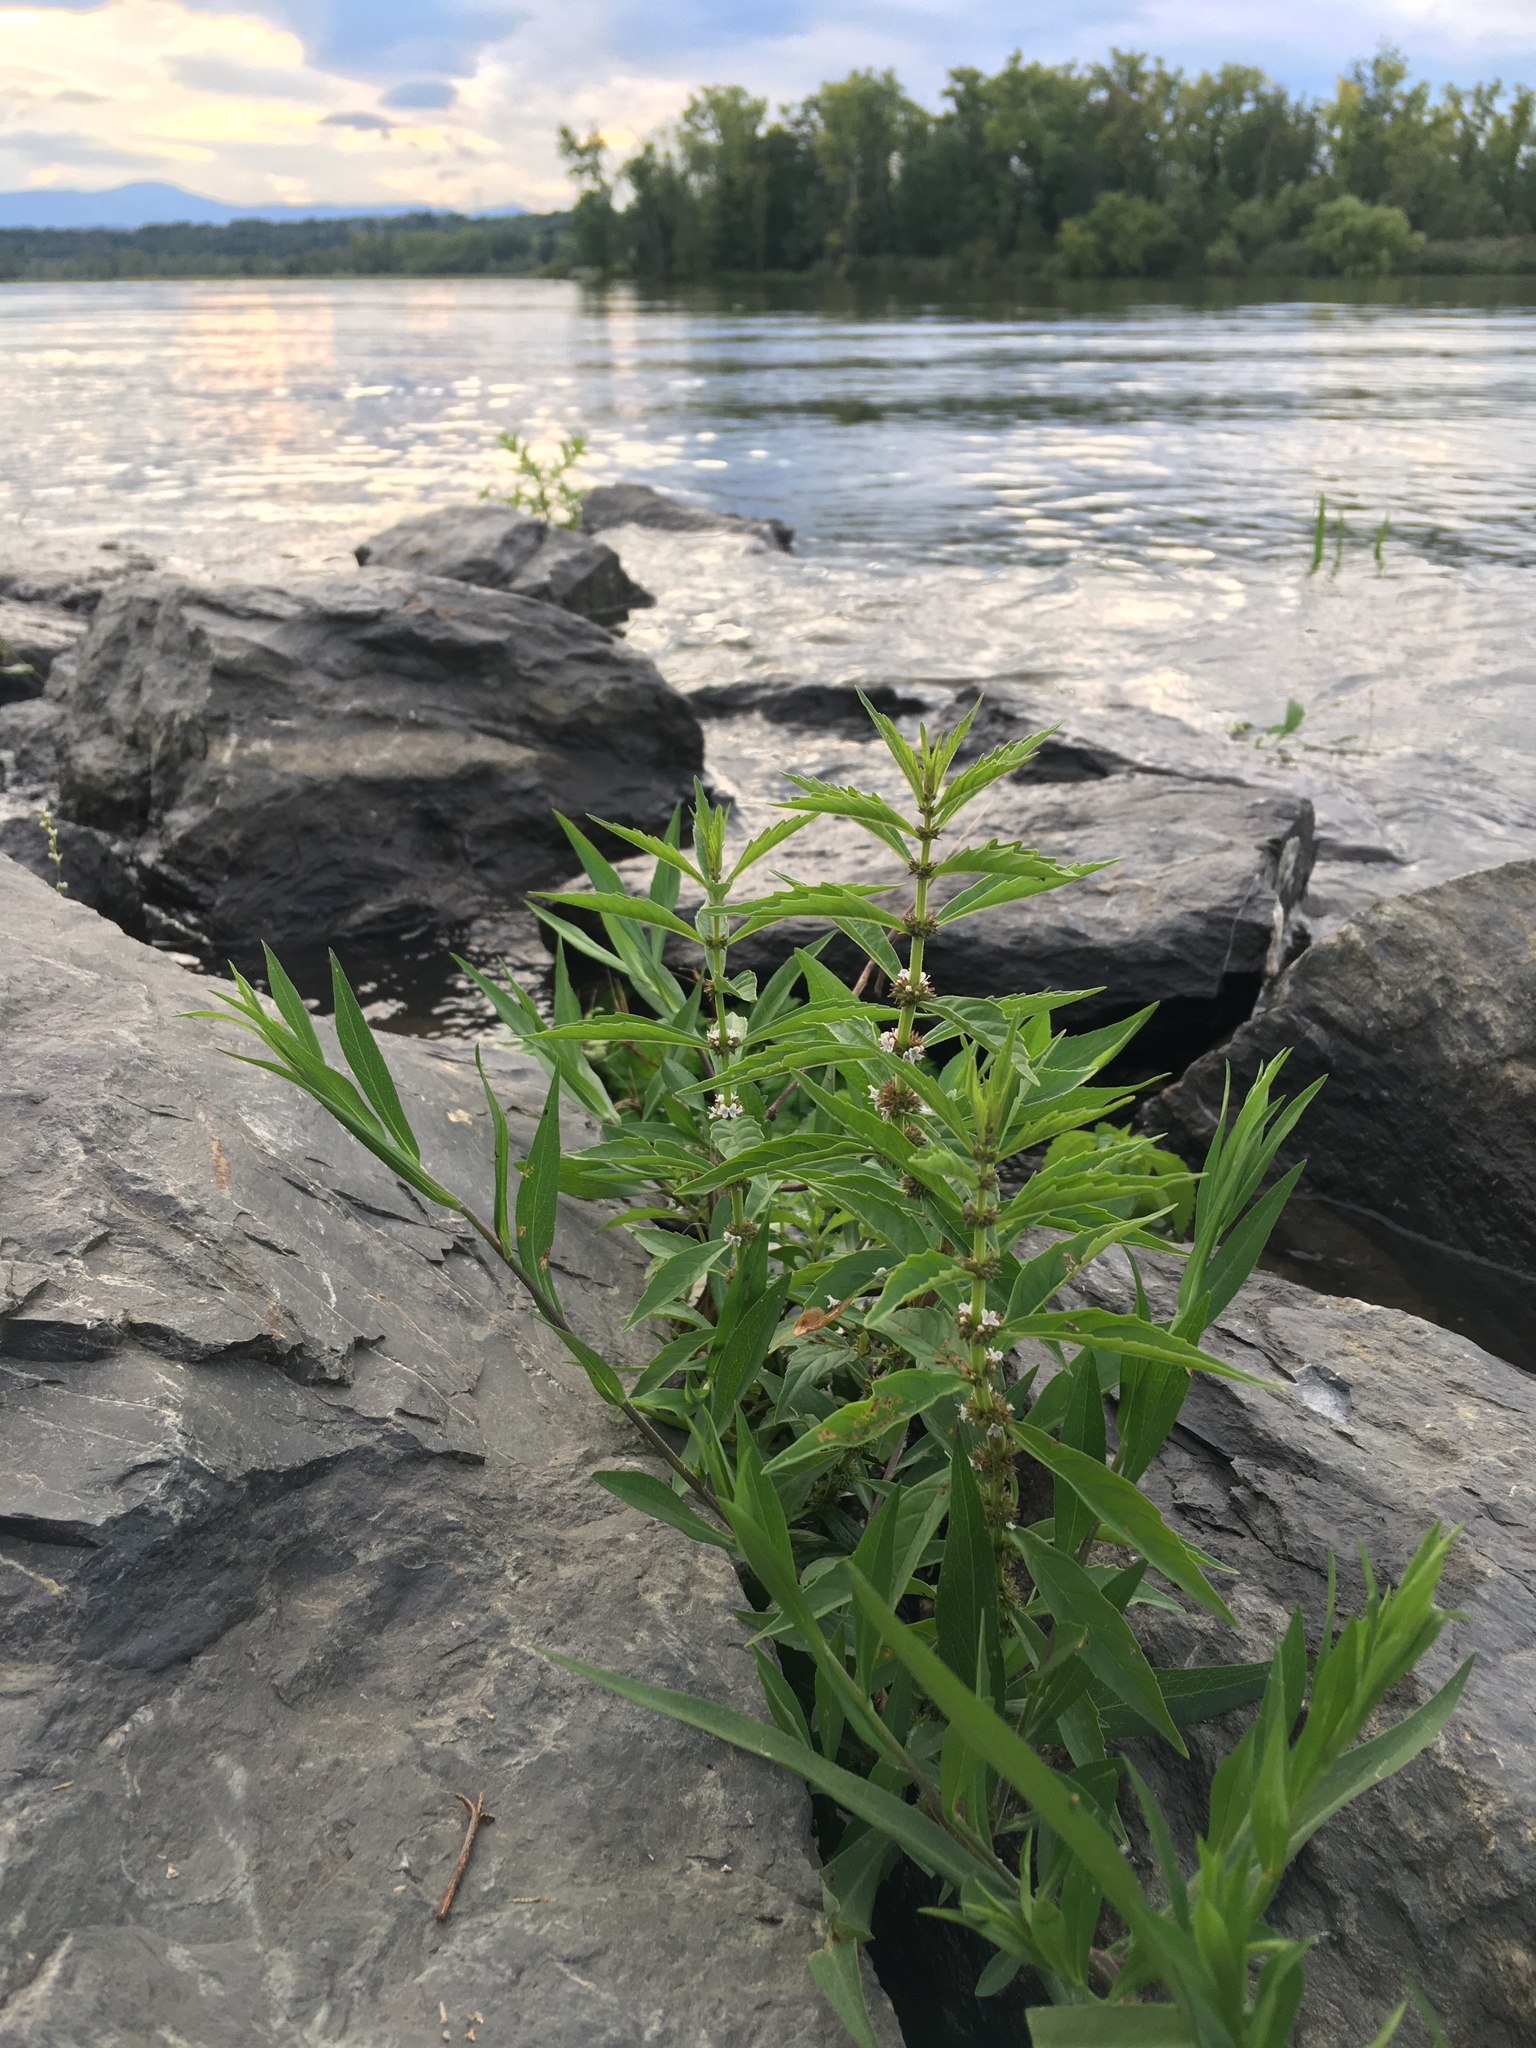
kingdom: Plantae
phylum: Tracheophyta
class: Magnoliopsida
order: Lamiales
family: Lamiaceae
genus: Lycopus
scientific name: Lycopus americanus
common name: American bugleweed
